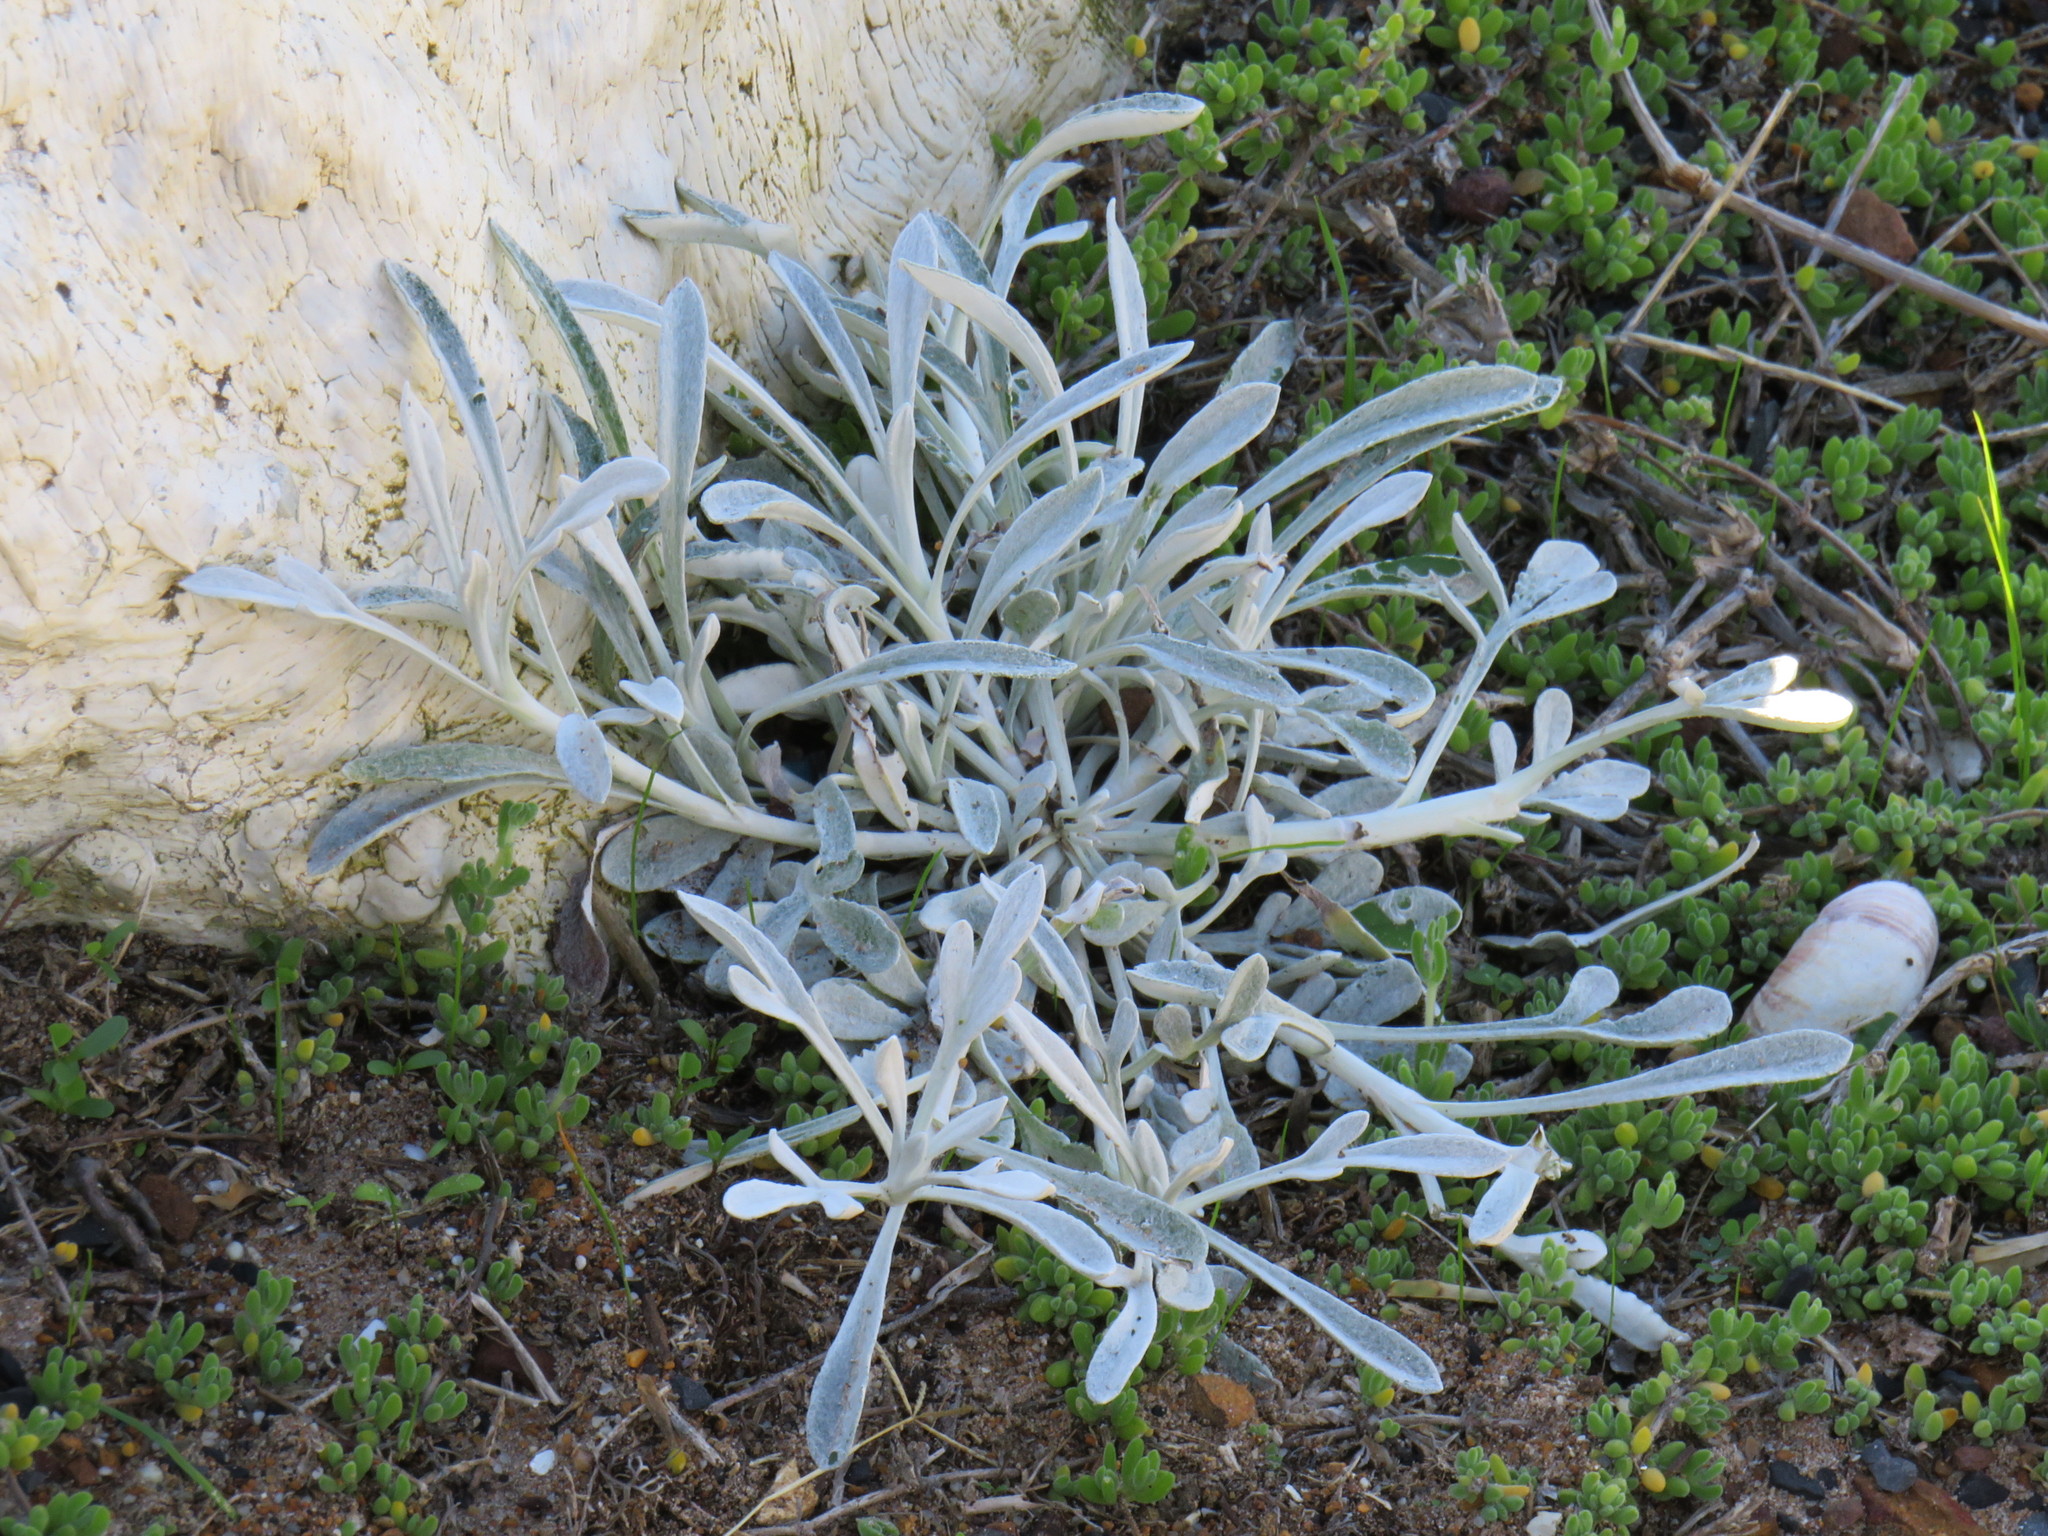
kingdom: Plantae
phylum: Tracheophyta
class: Magnoliopsida
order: Asterales
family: Asteraceae
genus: Gazania
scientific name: Gazania rigens
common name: Treasureflower
